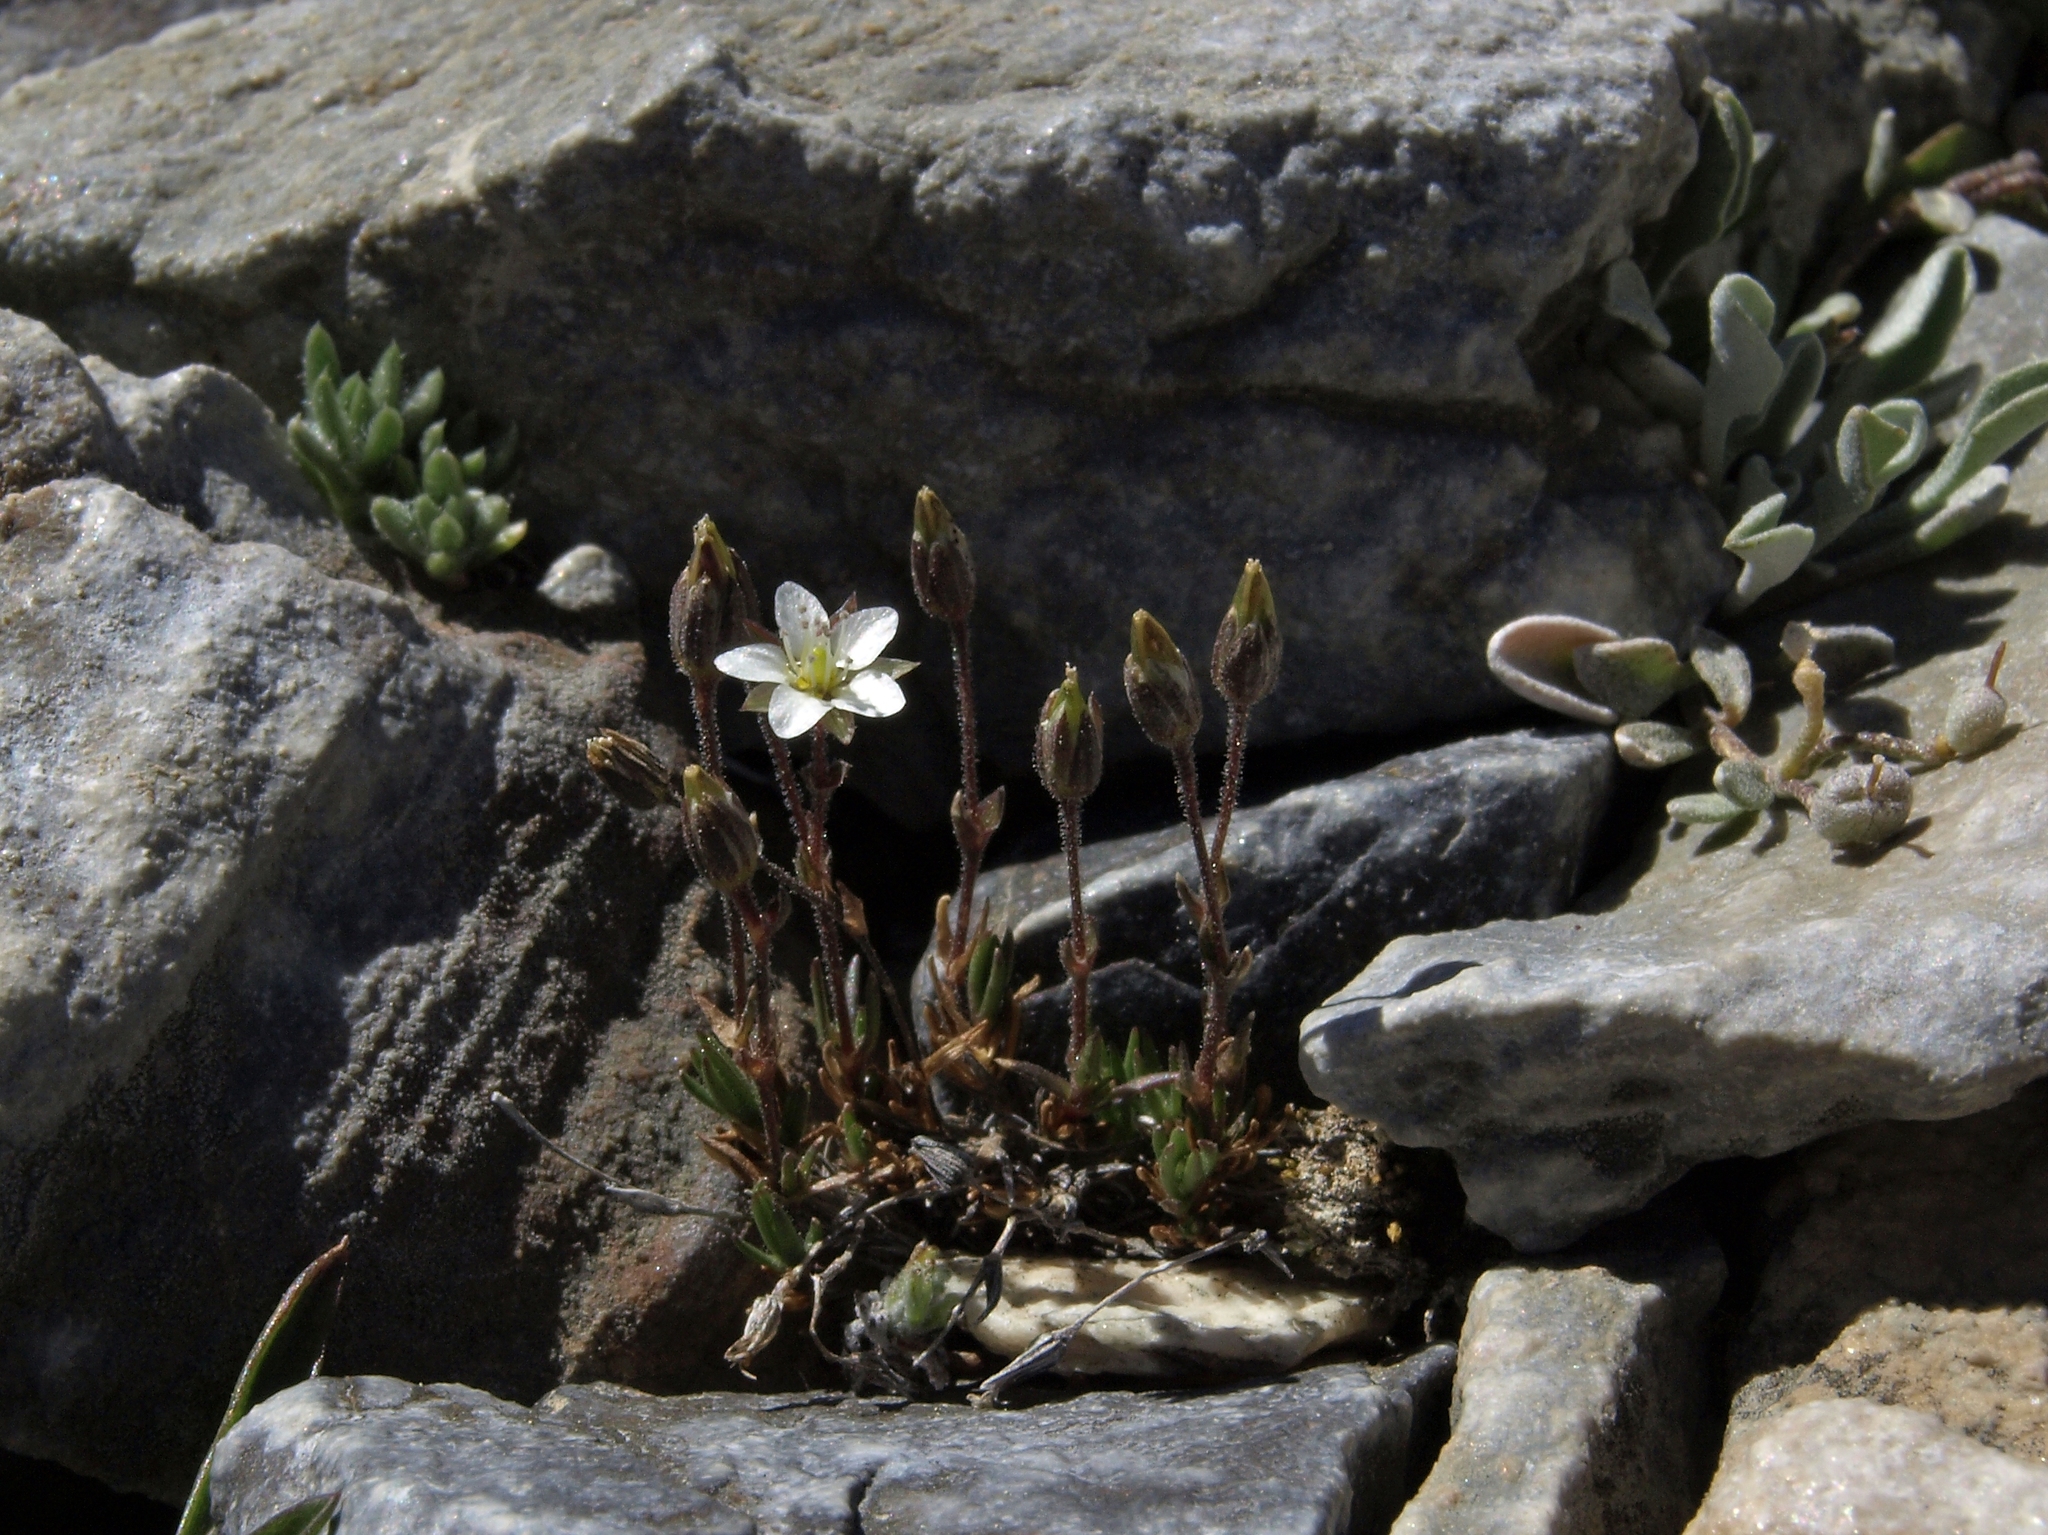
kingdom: Plantae
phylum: Tracheophyta
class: Magnoliopsida
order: Caryophyllales
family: Caryophyllaceae
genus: Sabulina
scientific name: Sabulina rubella
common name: Beautiful sandwort
